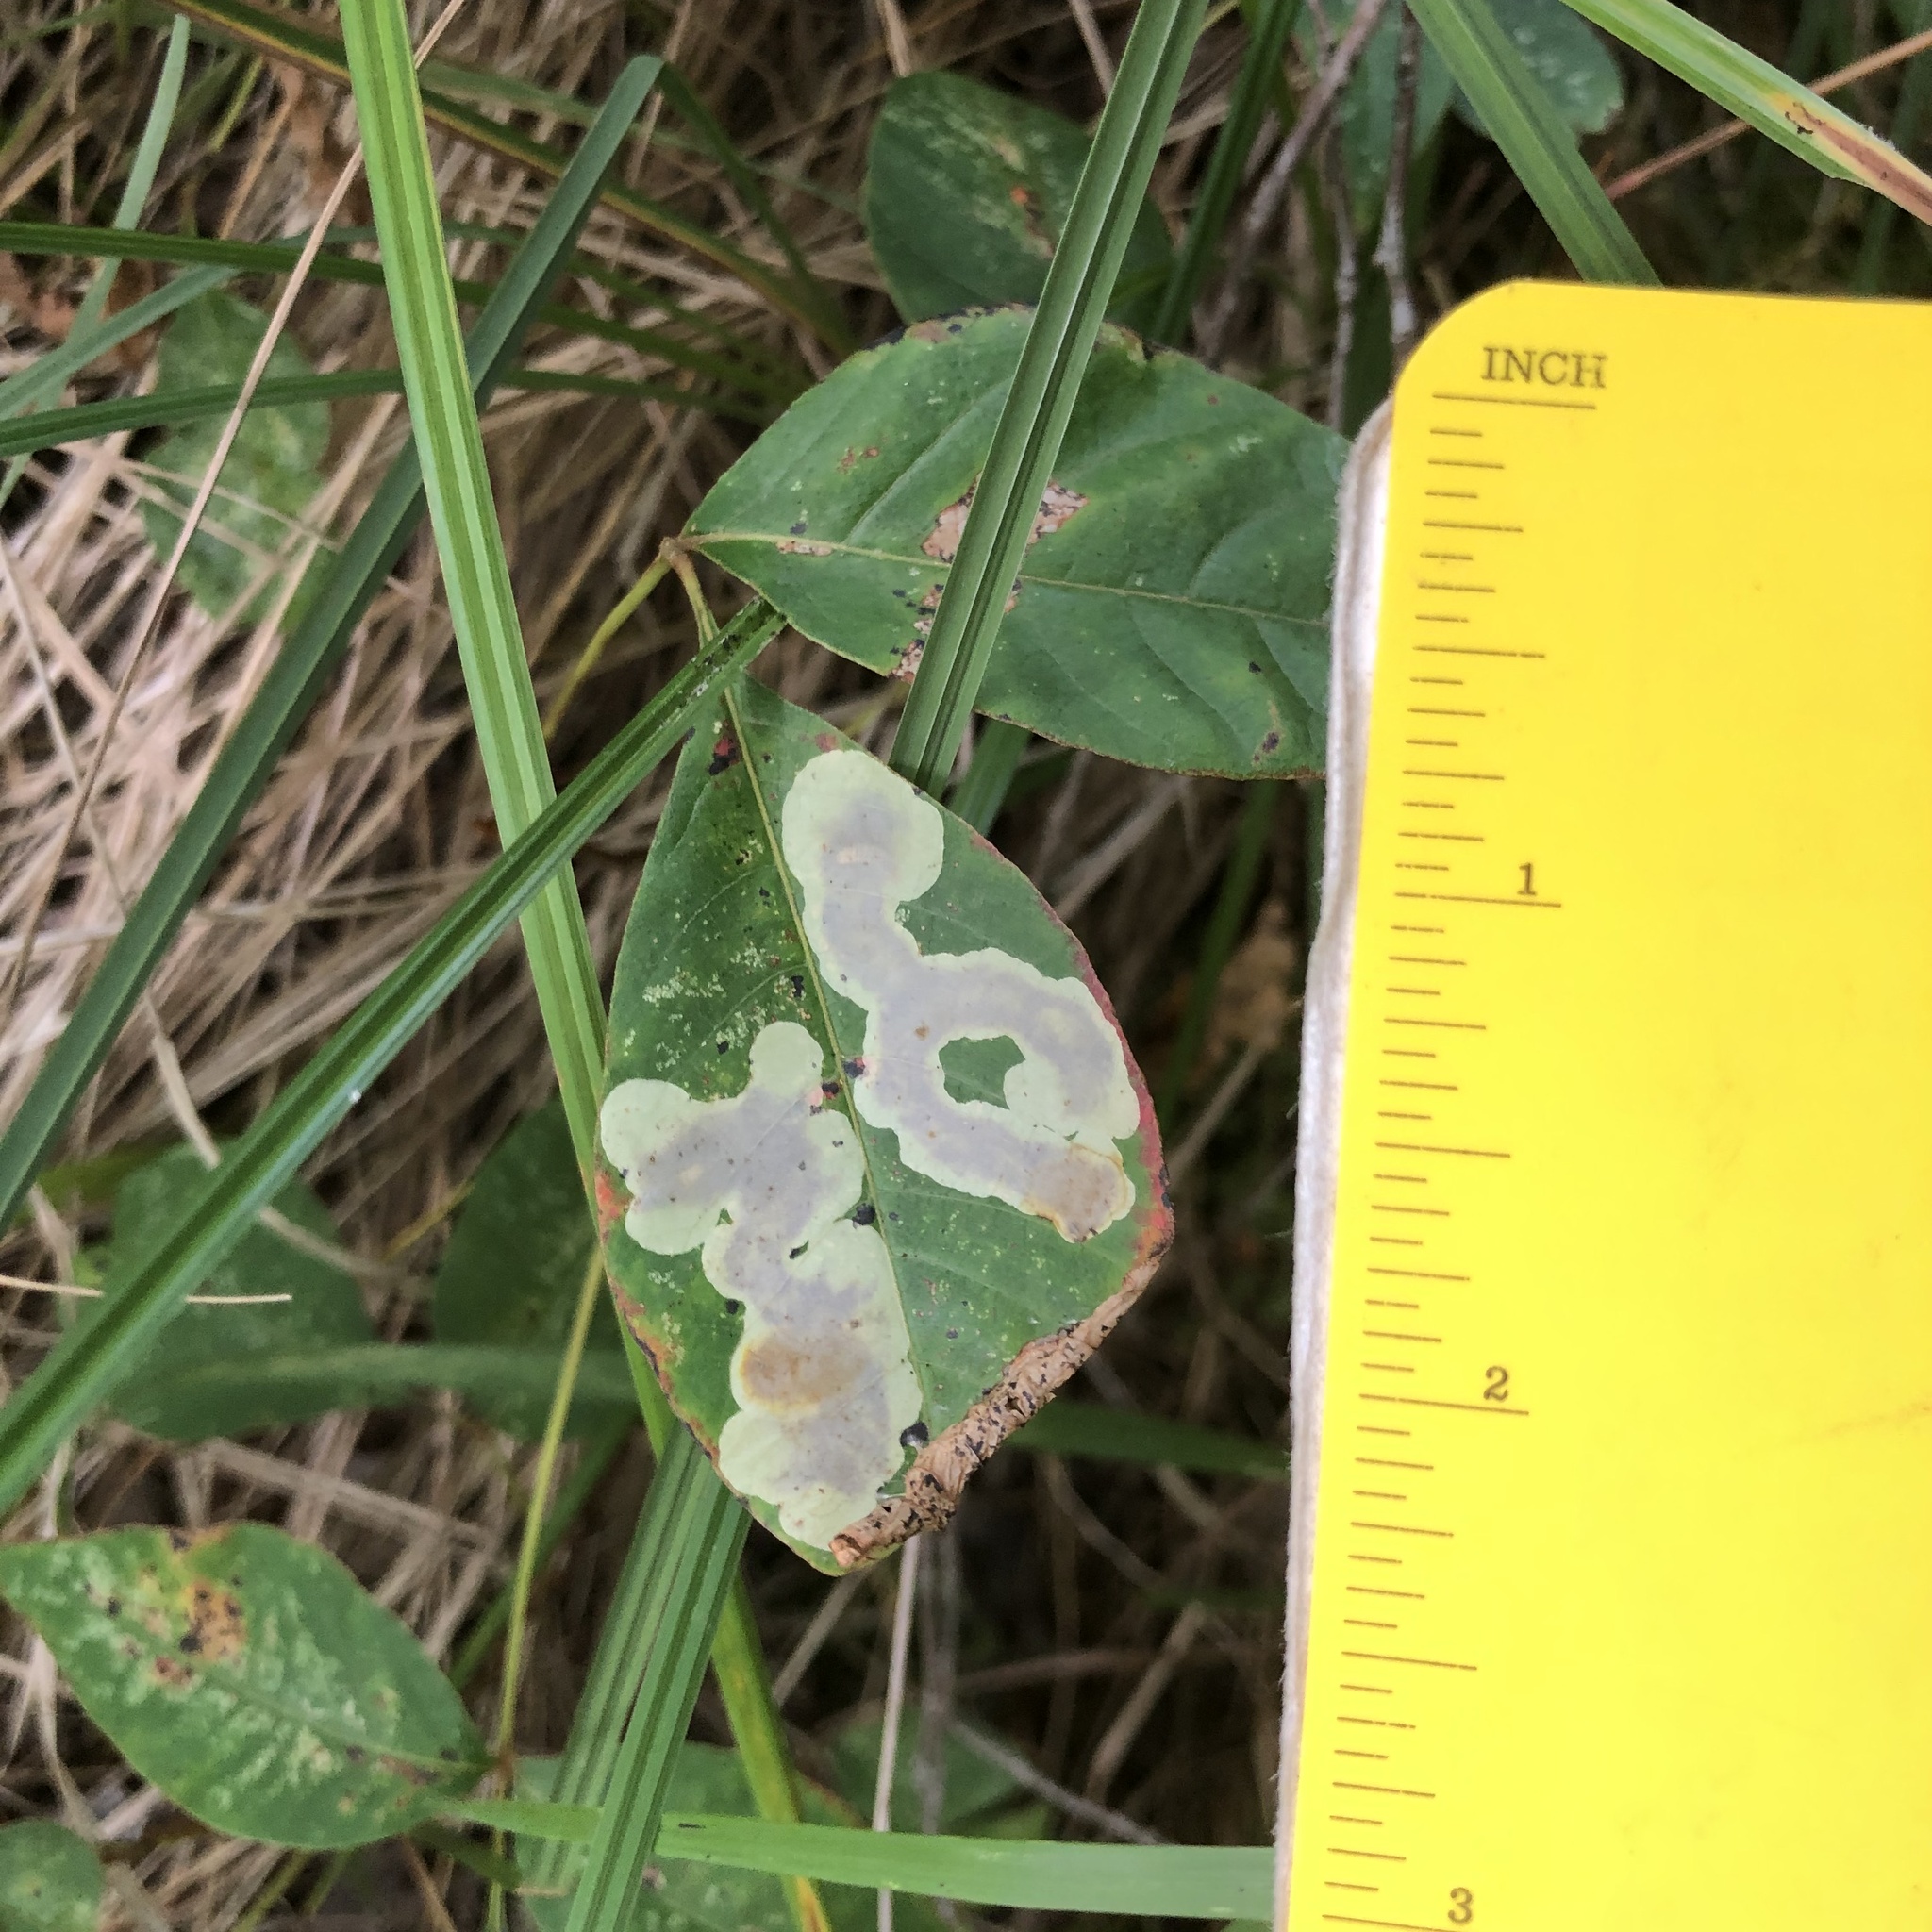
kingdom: Animalia
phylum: Arthropoda
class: Insecta
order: Lepidoptera
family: Gracillariidae
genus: Cameraria
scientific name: Cameraria guttifinitella
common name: Poison ivy leaf-miner moth
